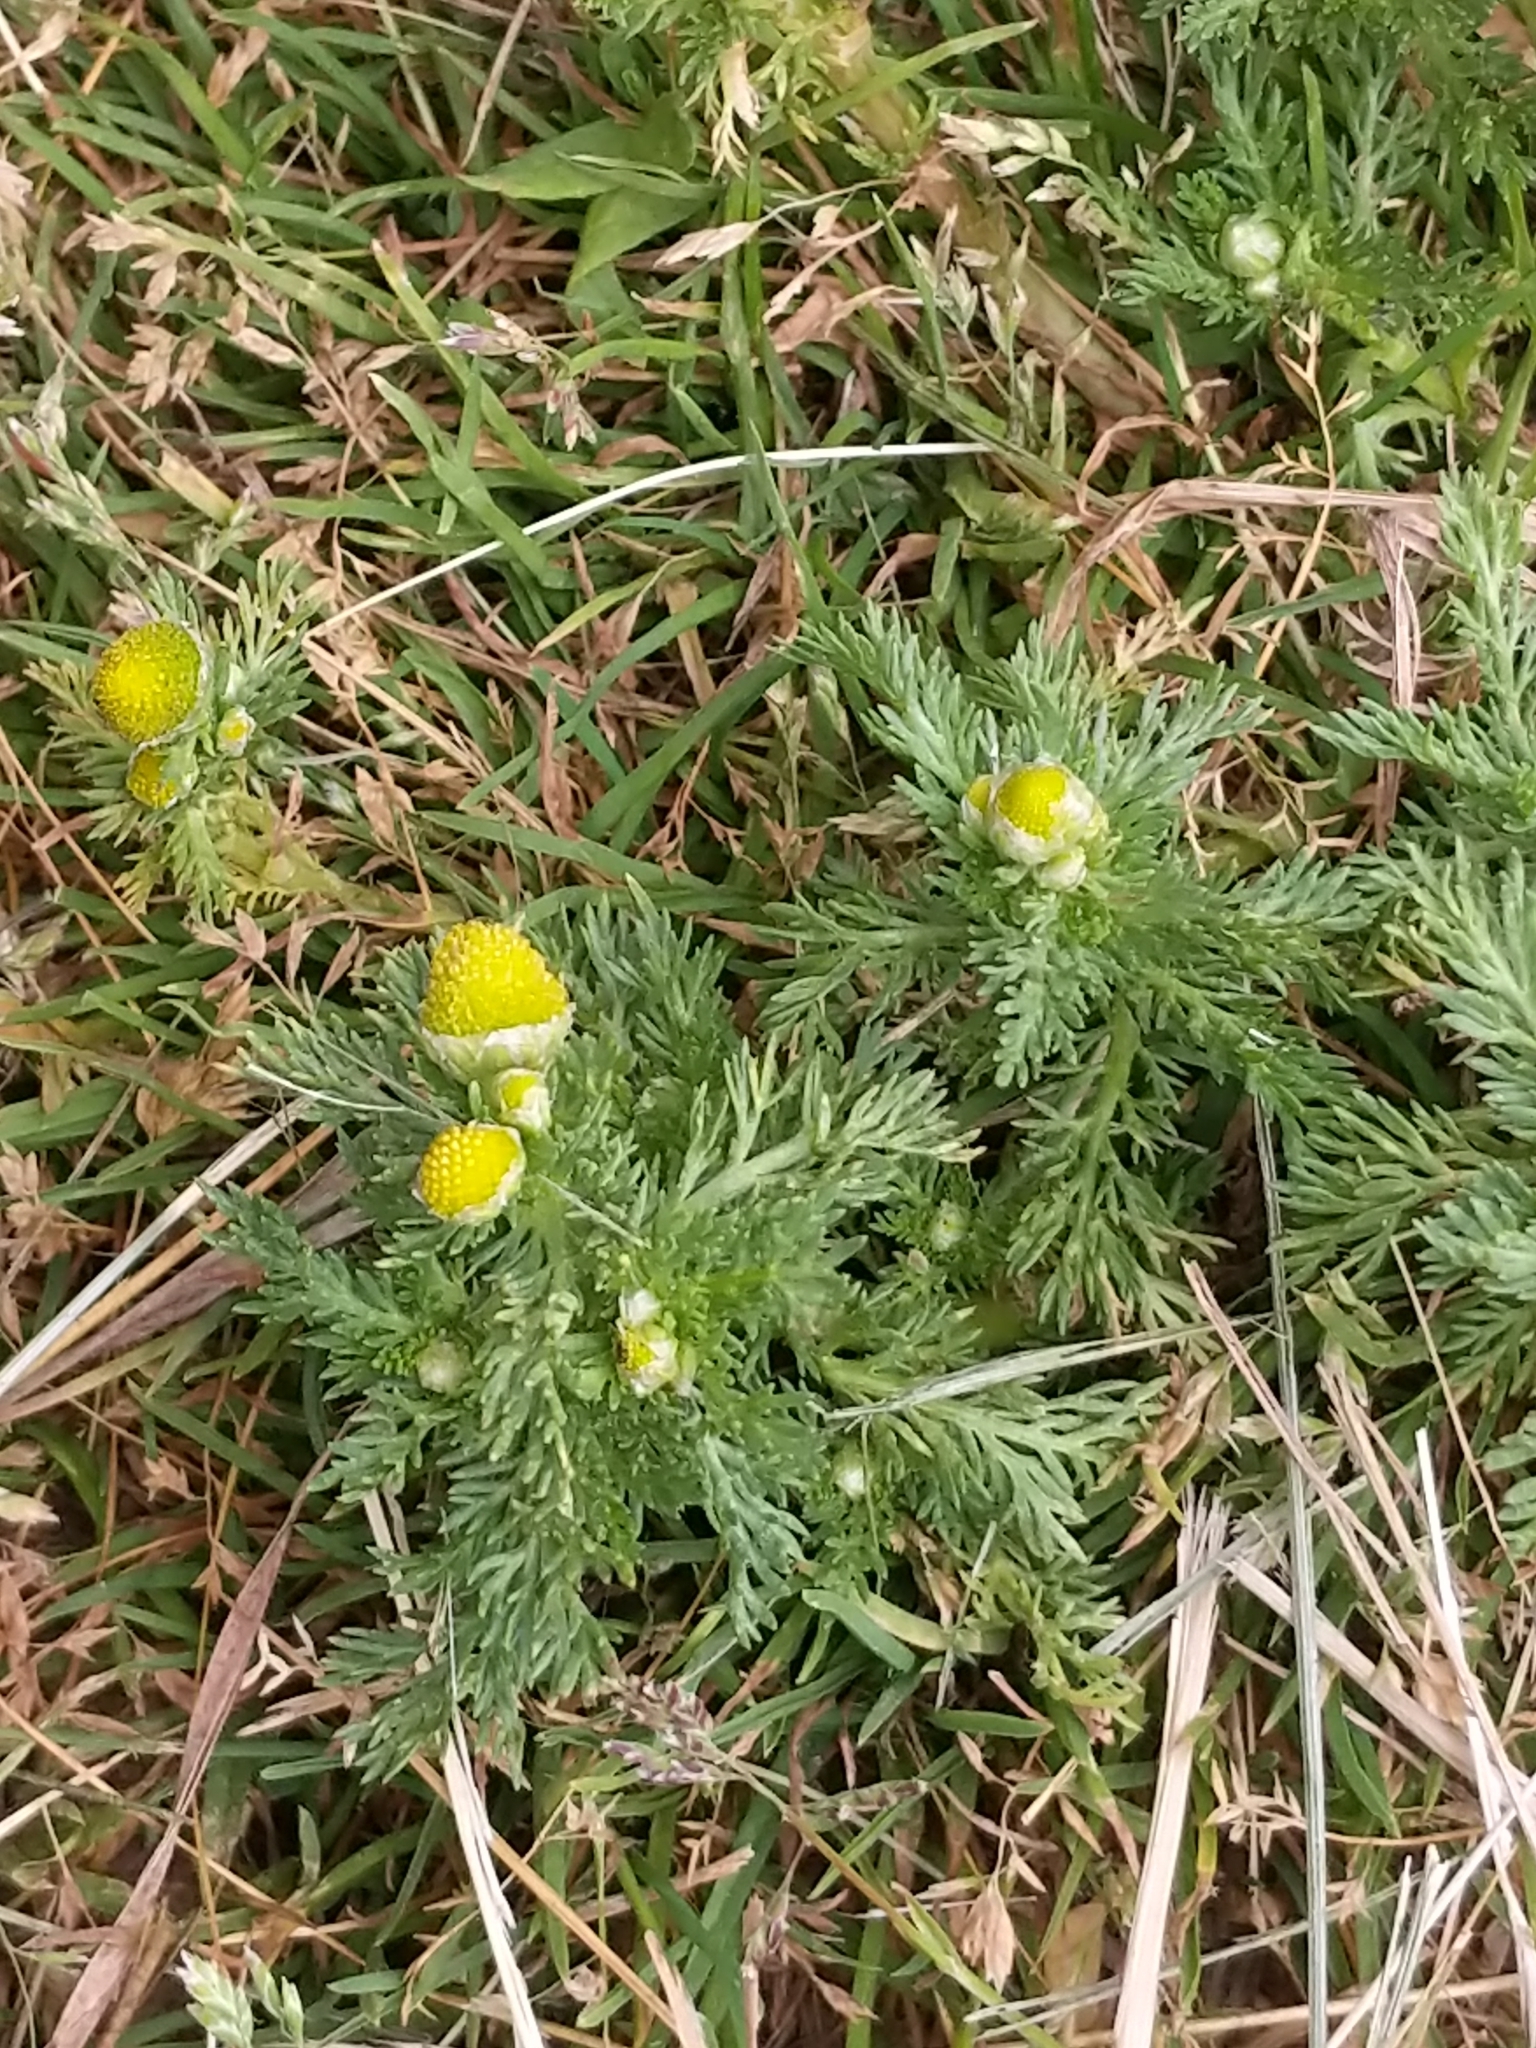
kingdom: Plantae
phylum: Tracheophyta
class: Magnoliopsida
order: Asterales
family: Asteraceae
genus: Matricaria
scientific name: Matricaria discoidea
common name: Disc mayweed
